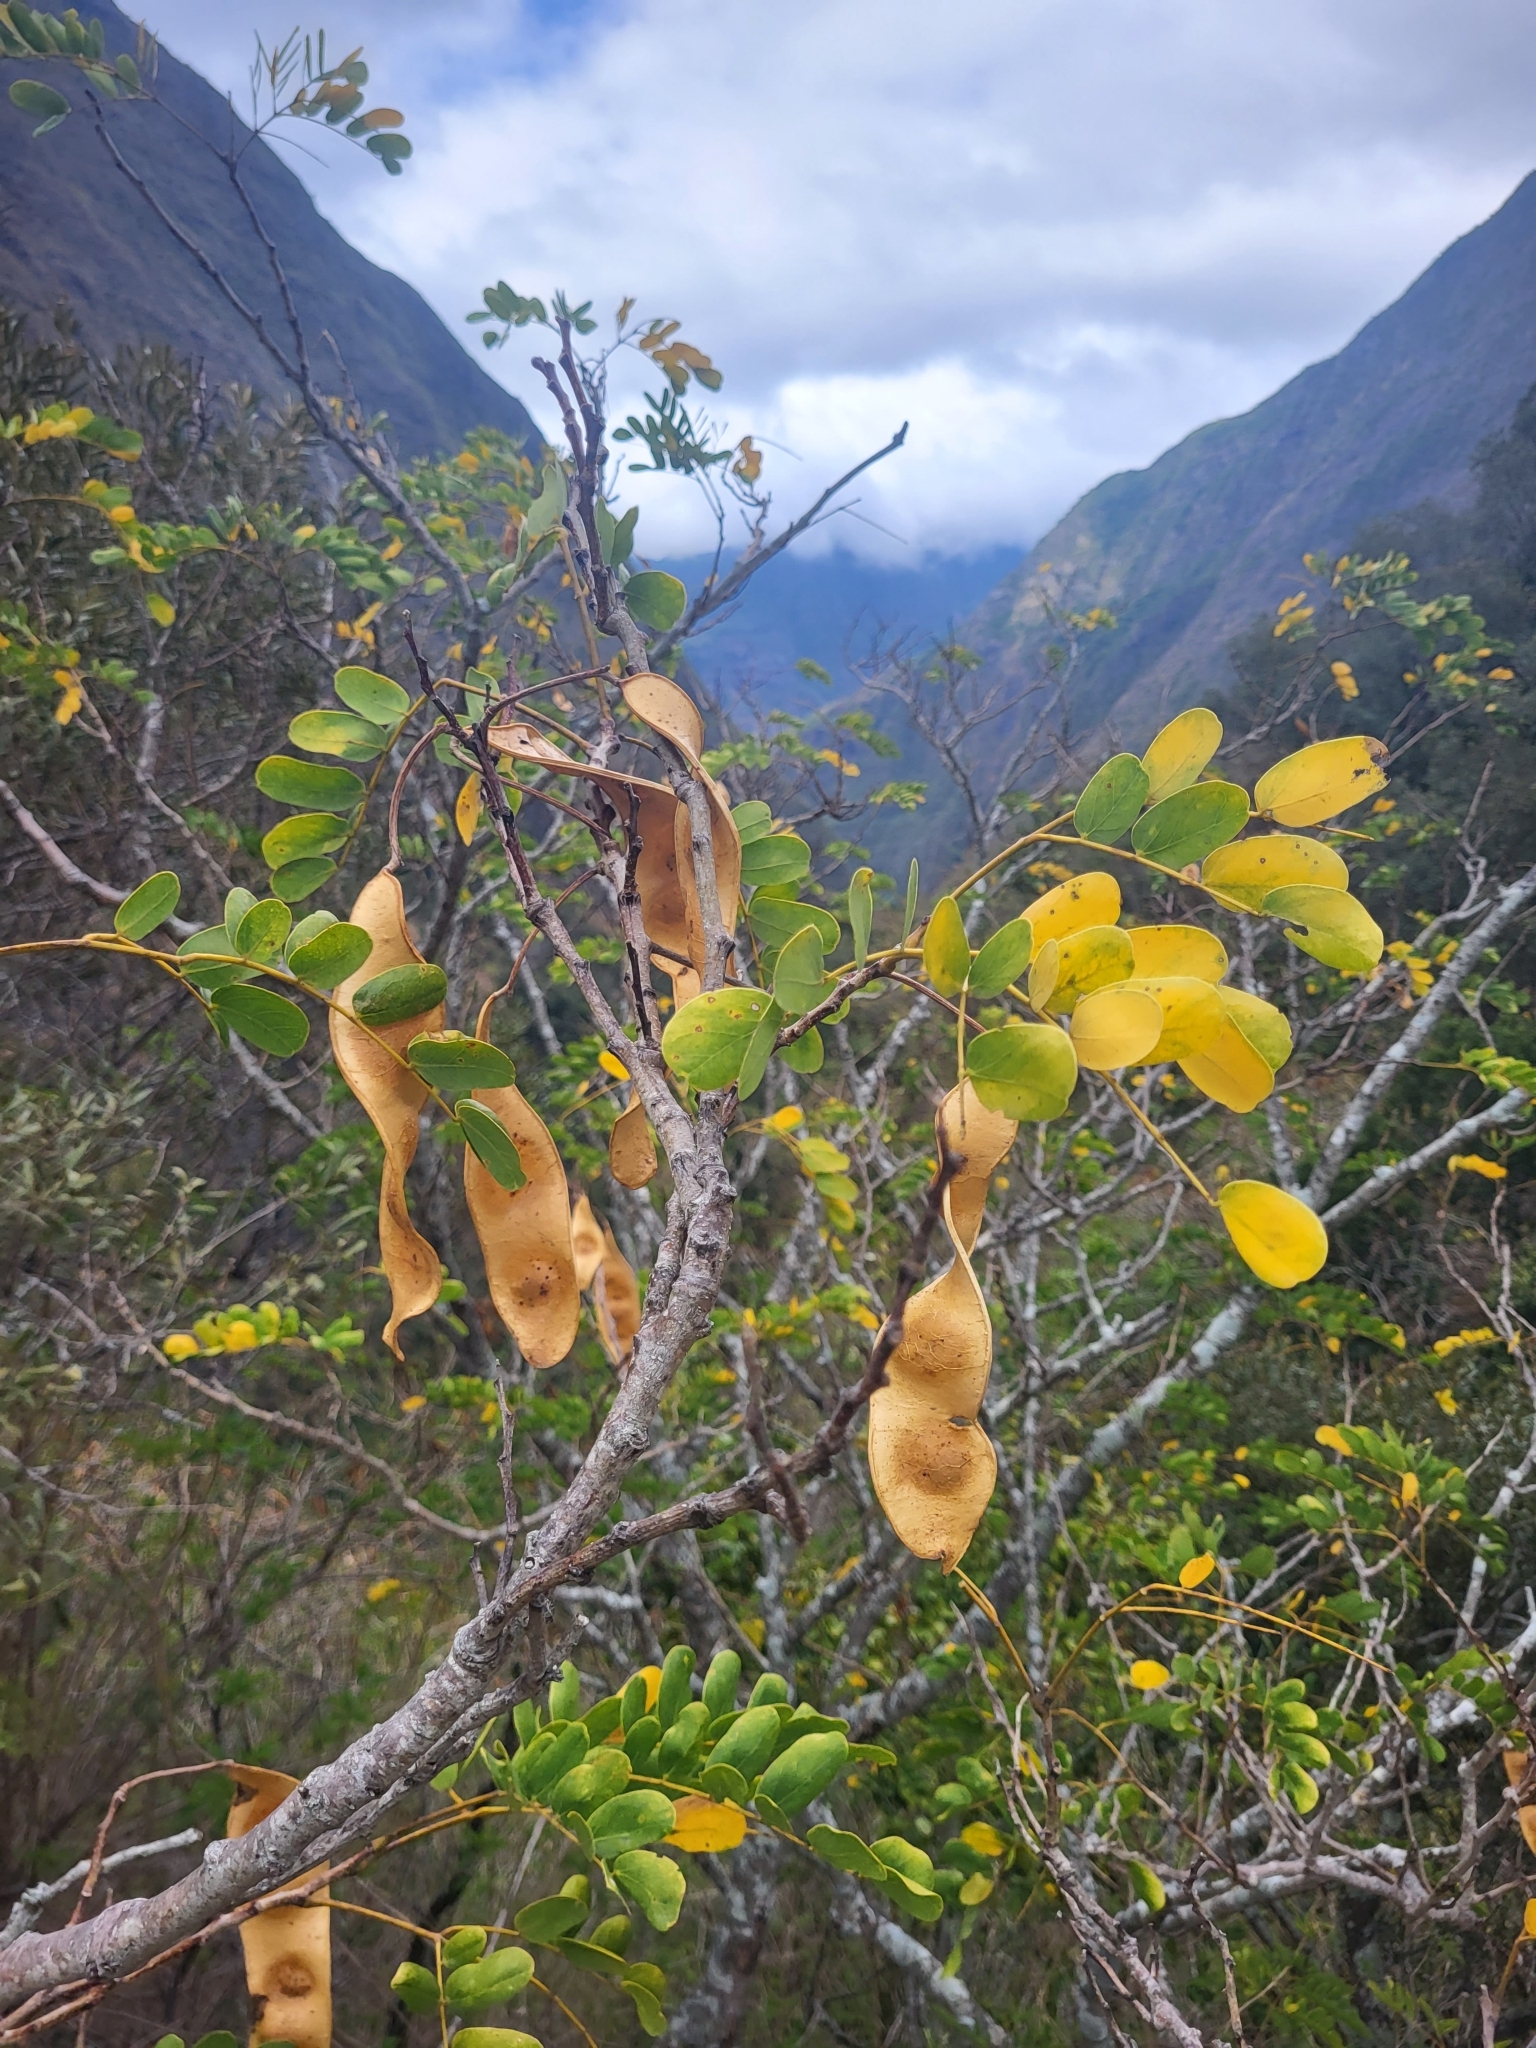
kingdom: Plantae
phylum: Tracheophyta
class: Magnoliopsida
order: Fabales
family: Fabaceae
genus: Albizia
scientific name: Albizia lebbeck
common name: Woman's tongue
